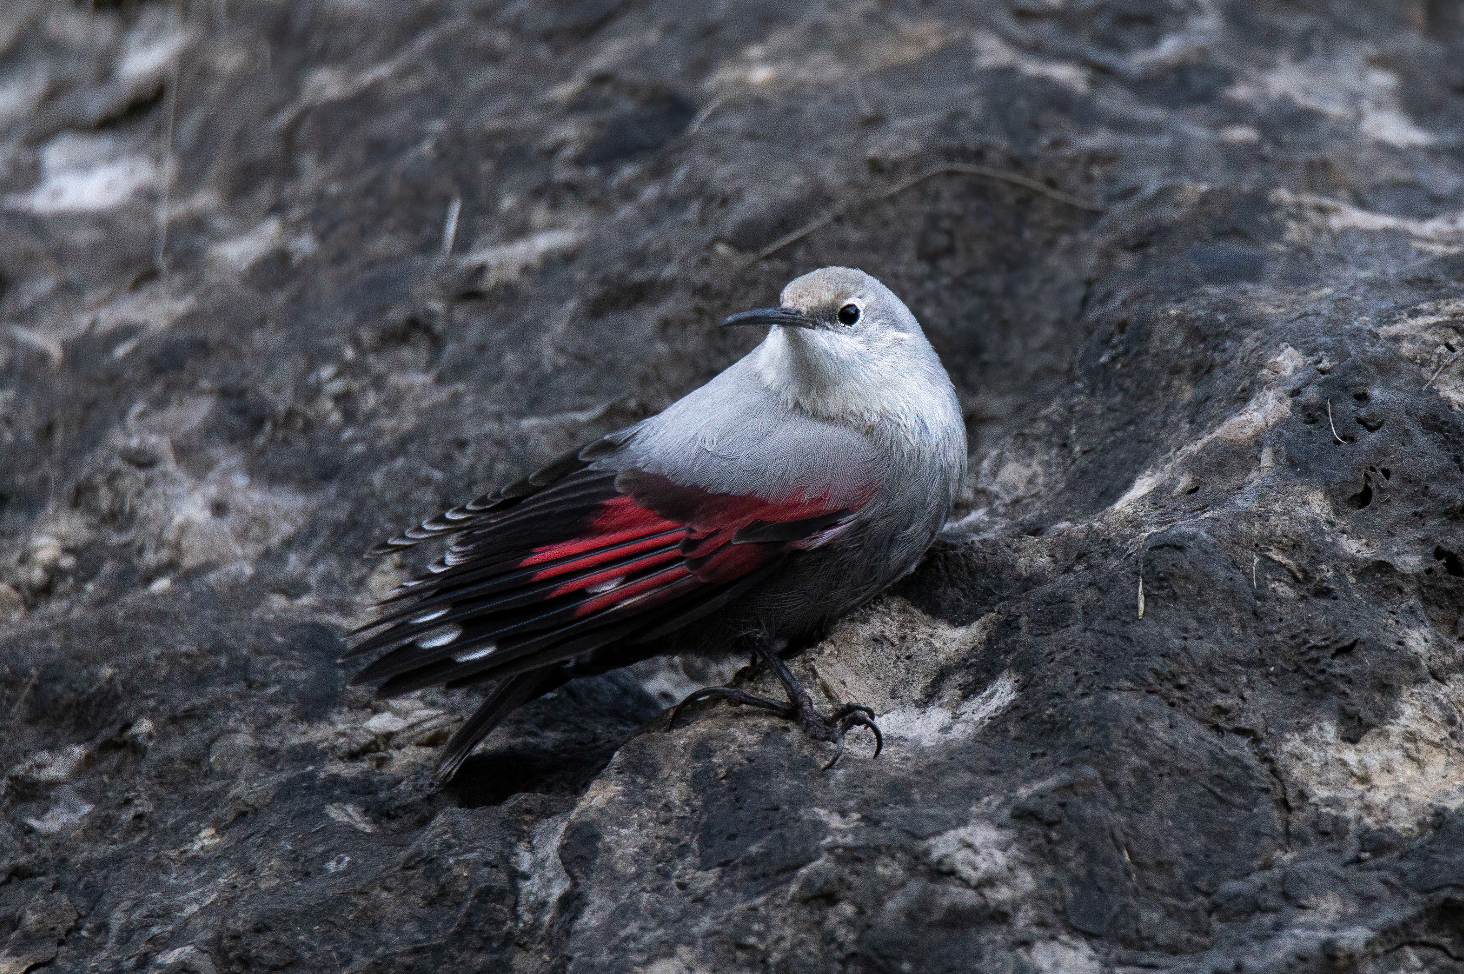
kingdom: Animalia
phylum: Chordata
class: Aves
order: Passeriformes
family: Tichodromidae
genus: Tichodroma
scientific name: Tichodroma muraria
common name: Wallcreeper
